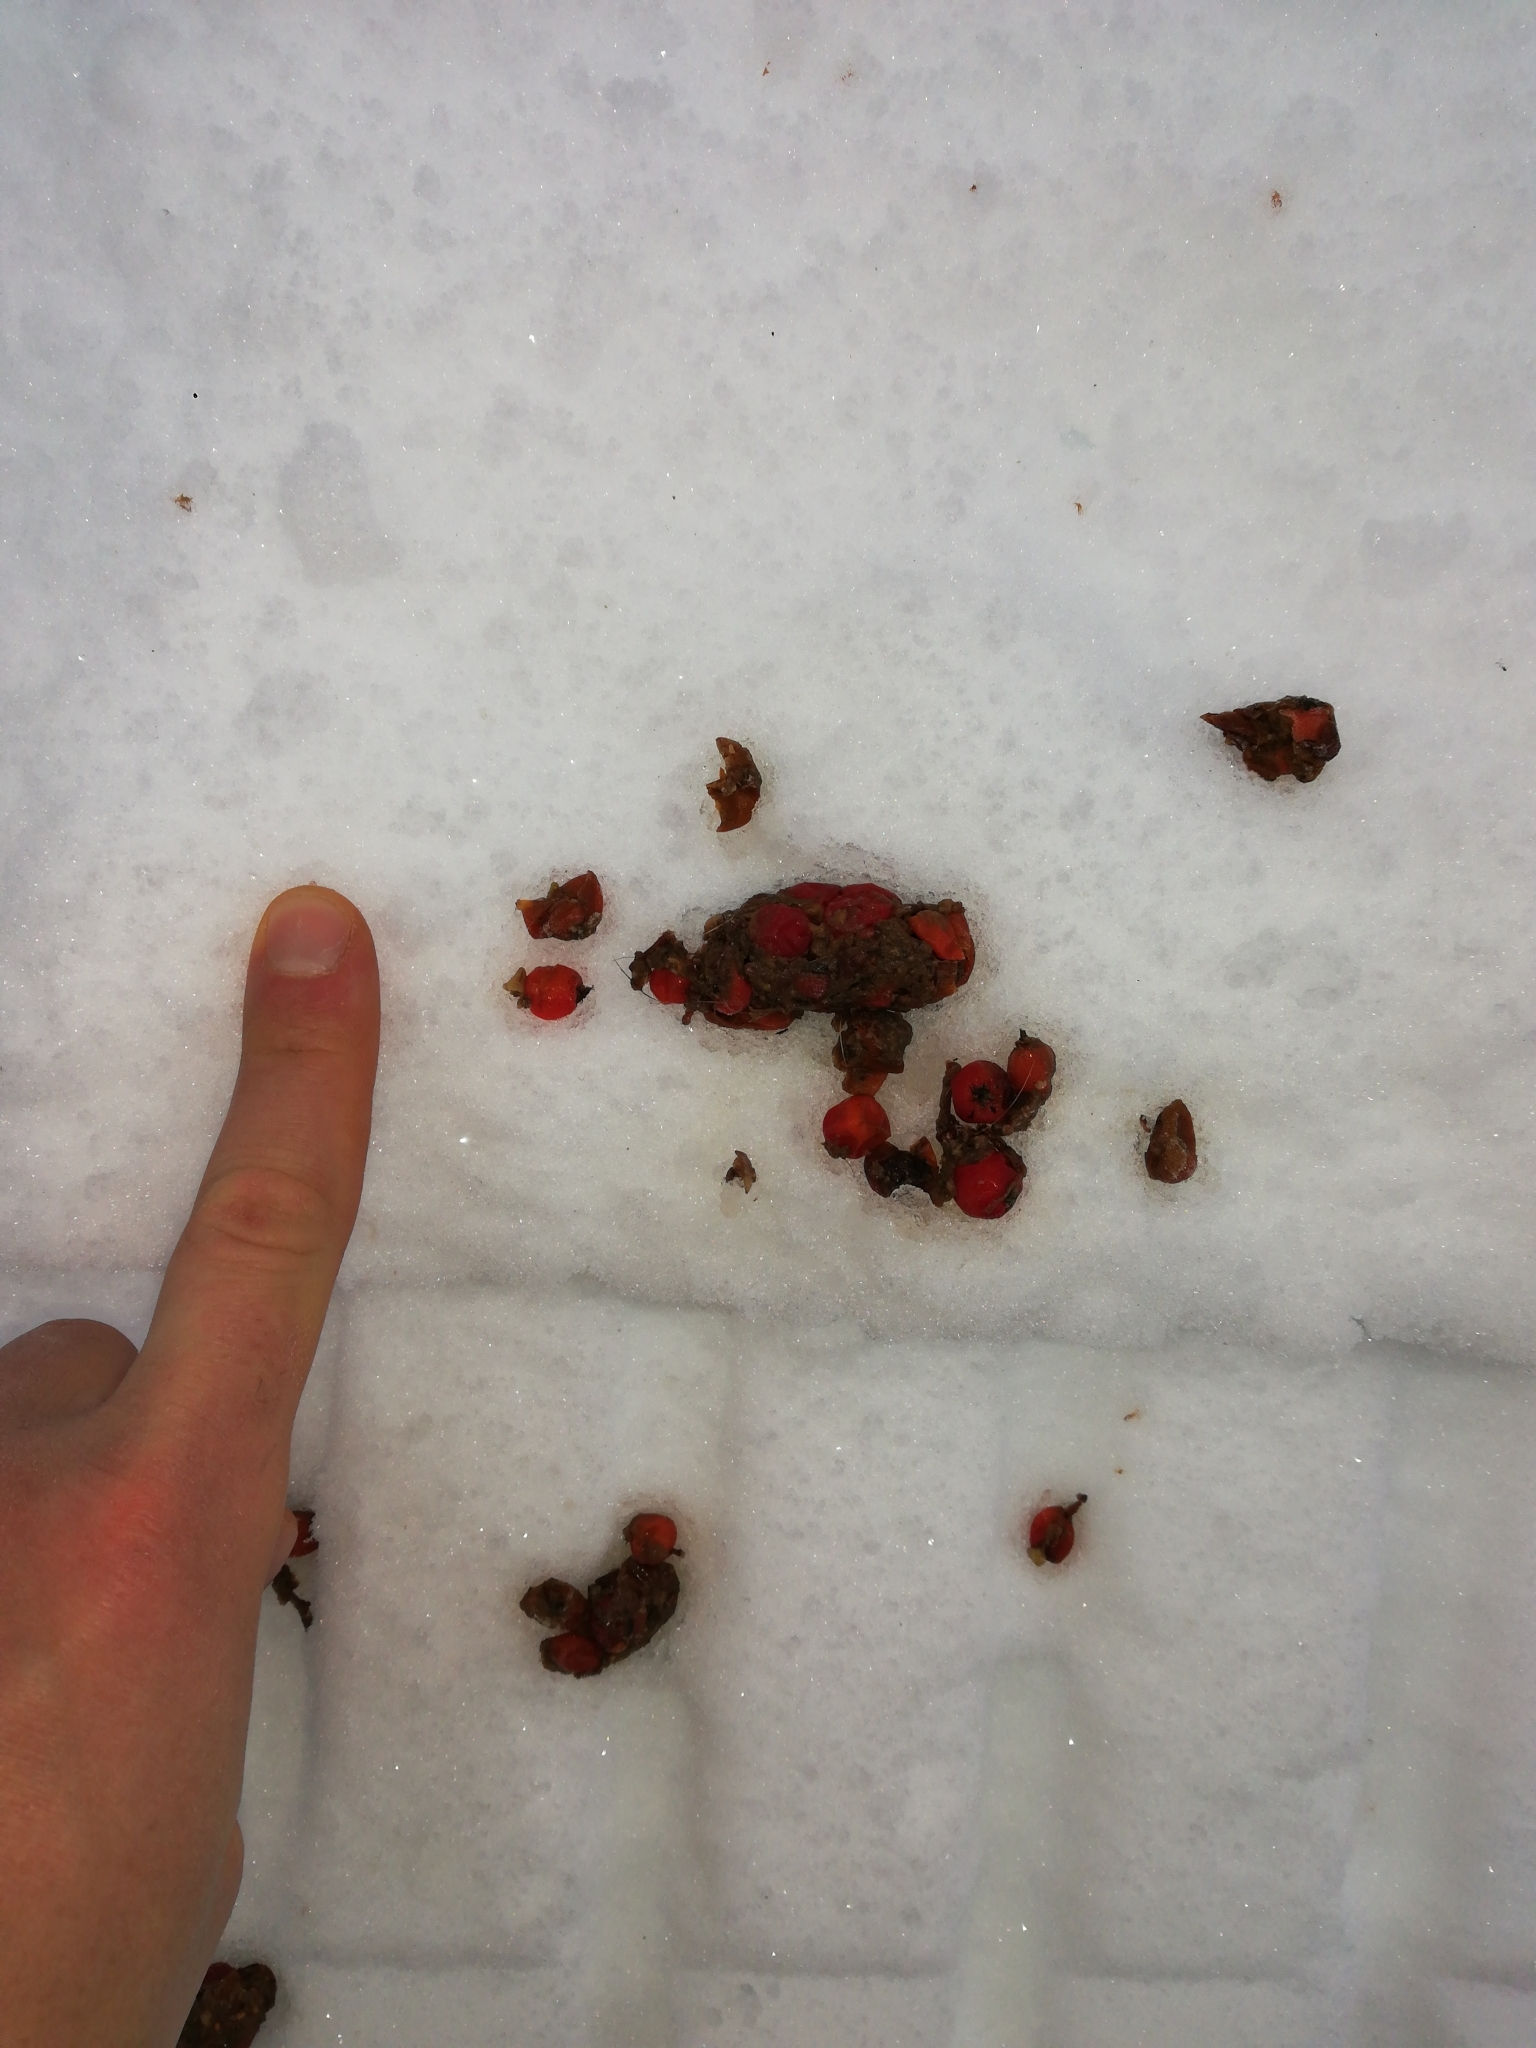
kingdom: Animalia
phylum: Chordata
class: Mammalia
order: Carnivora
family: Canidae
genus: Vulpes
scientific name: Vulpes vulpes
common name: Red fox
